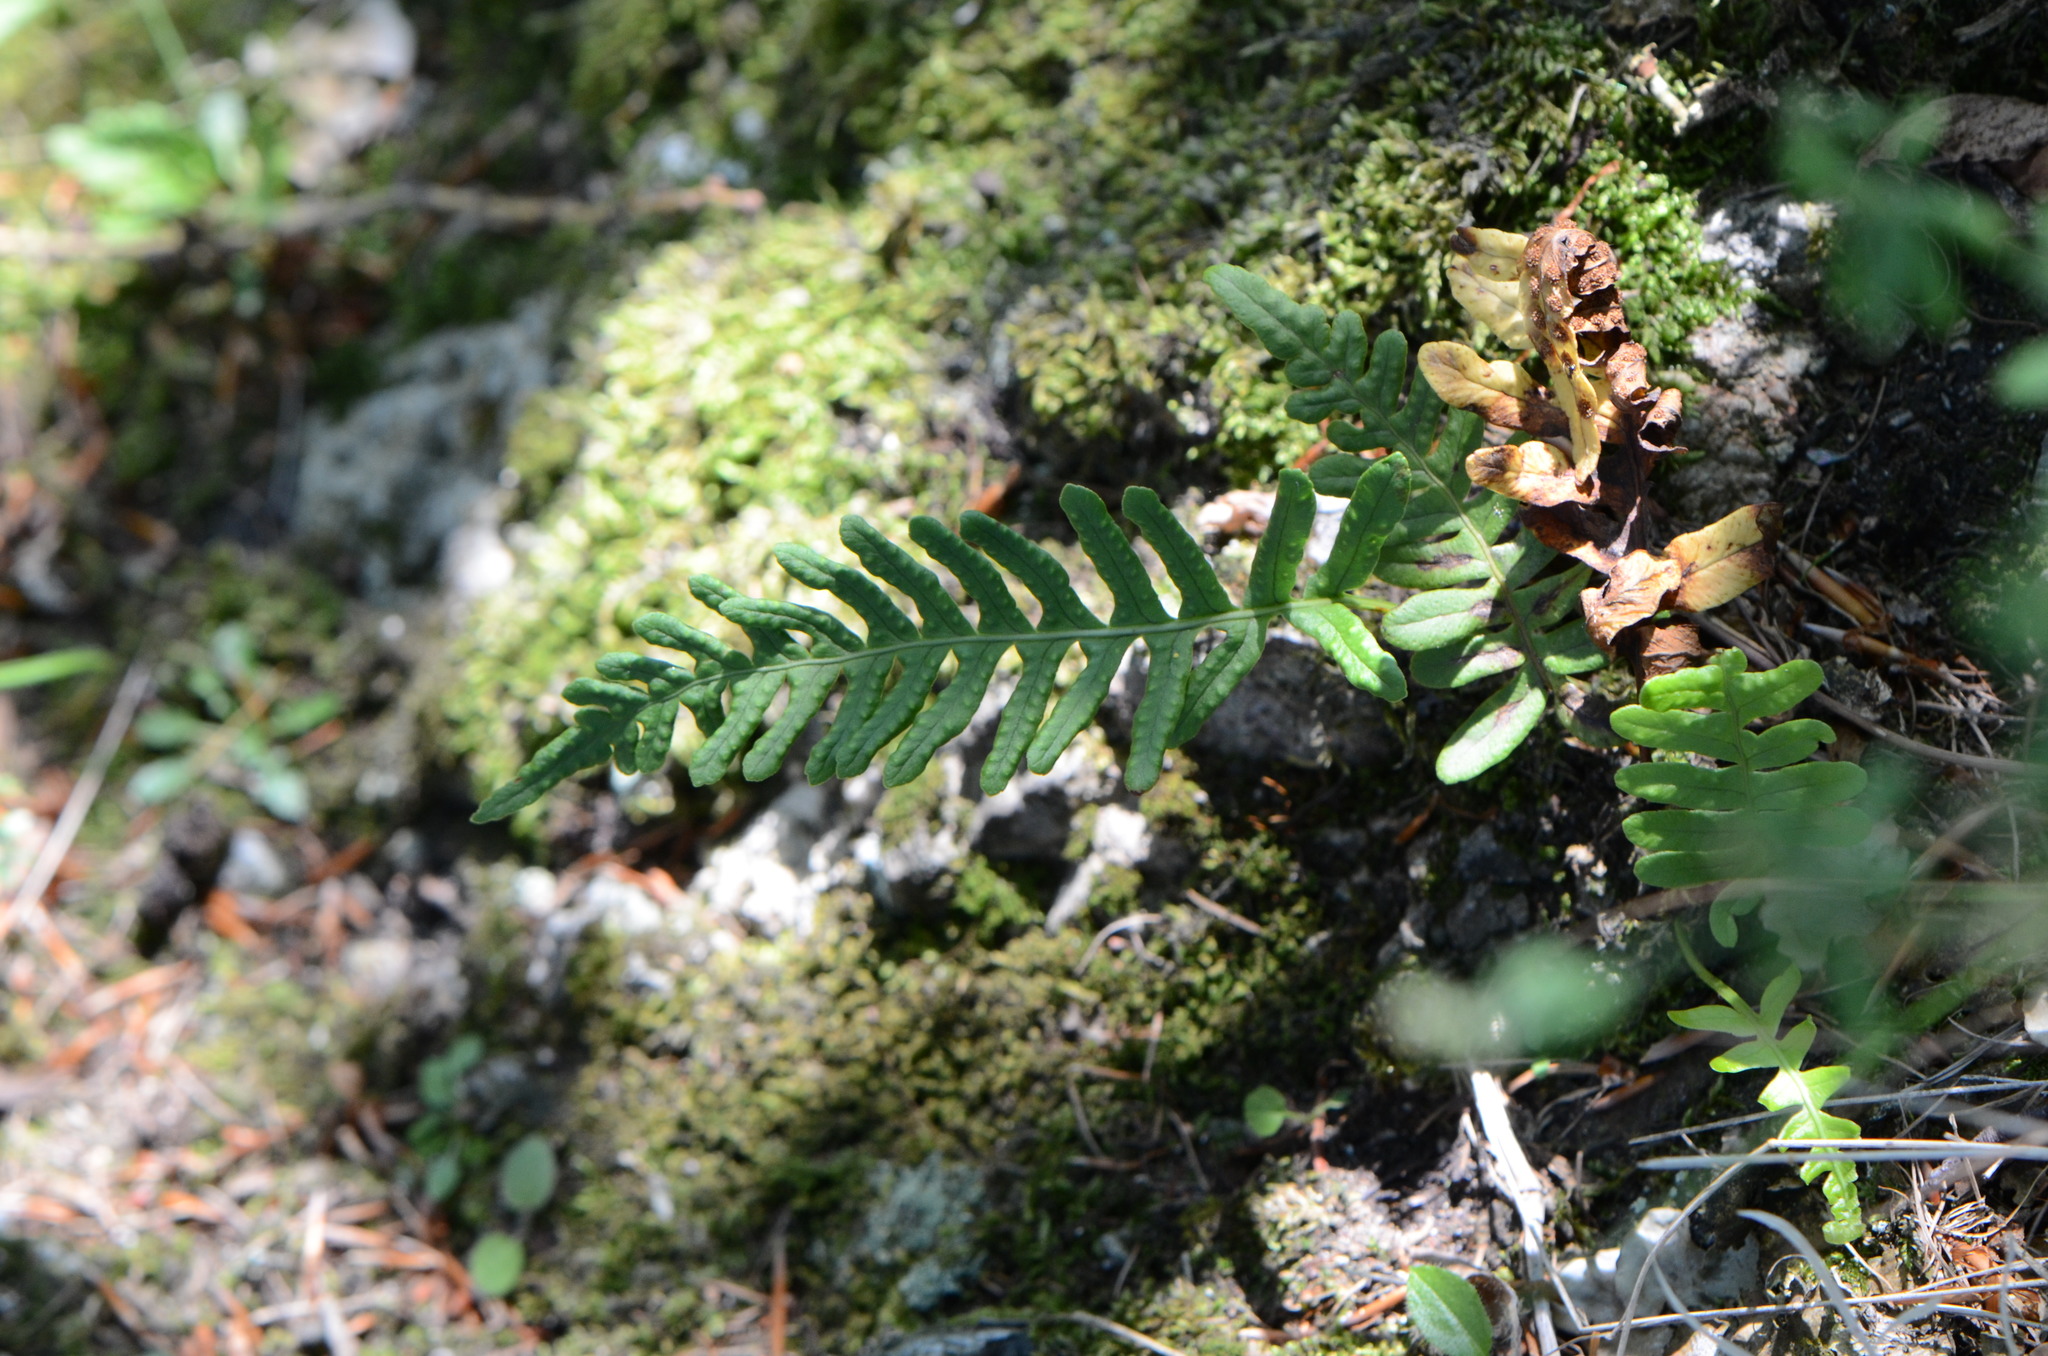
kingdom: Plantae
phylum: Tracheophyta
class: Polypodiopsida
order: Polypodiales
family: Polypodiaceae
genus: Polypodium
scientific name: Polypodium vulgare
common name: Common polypody
